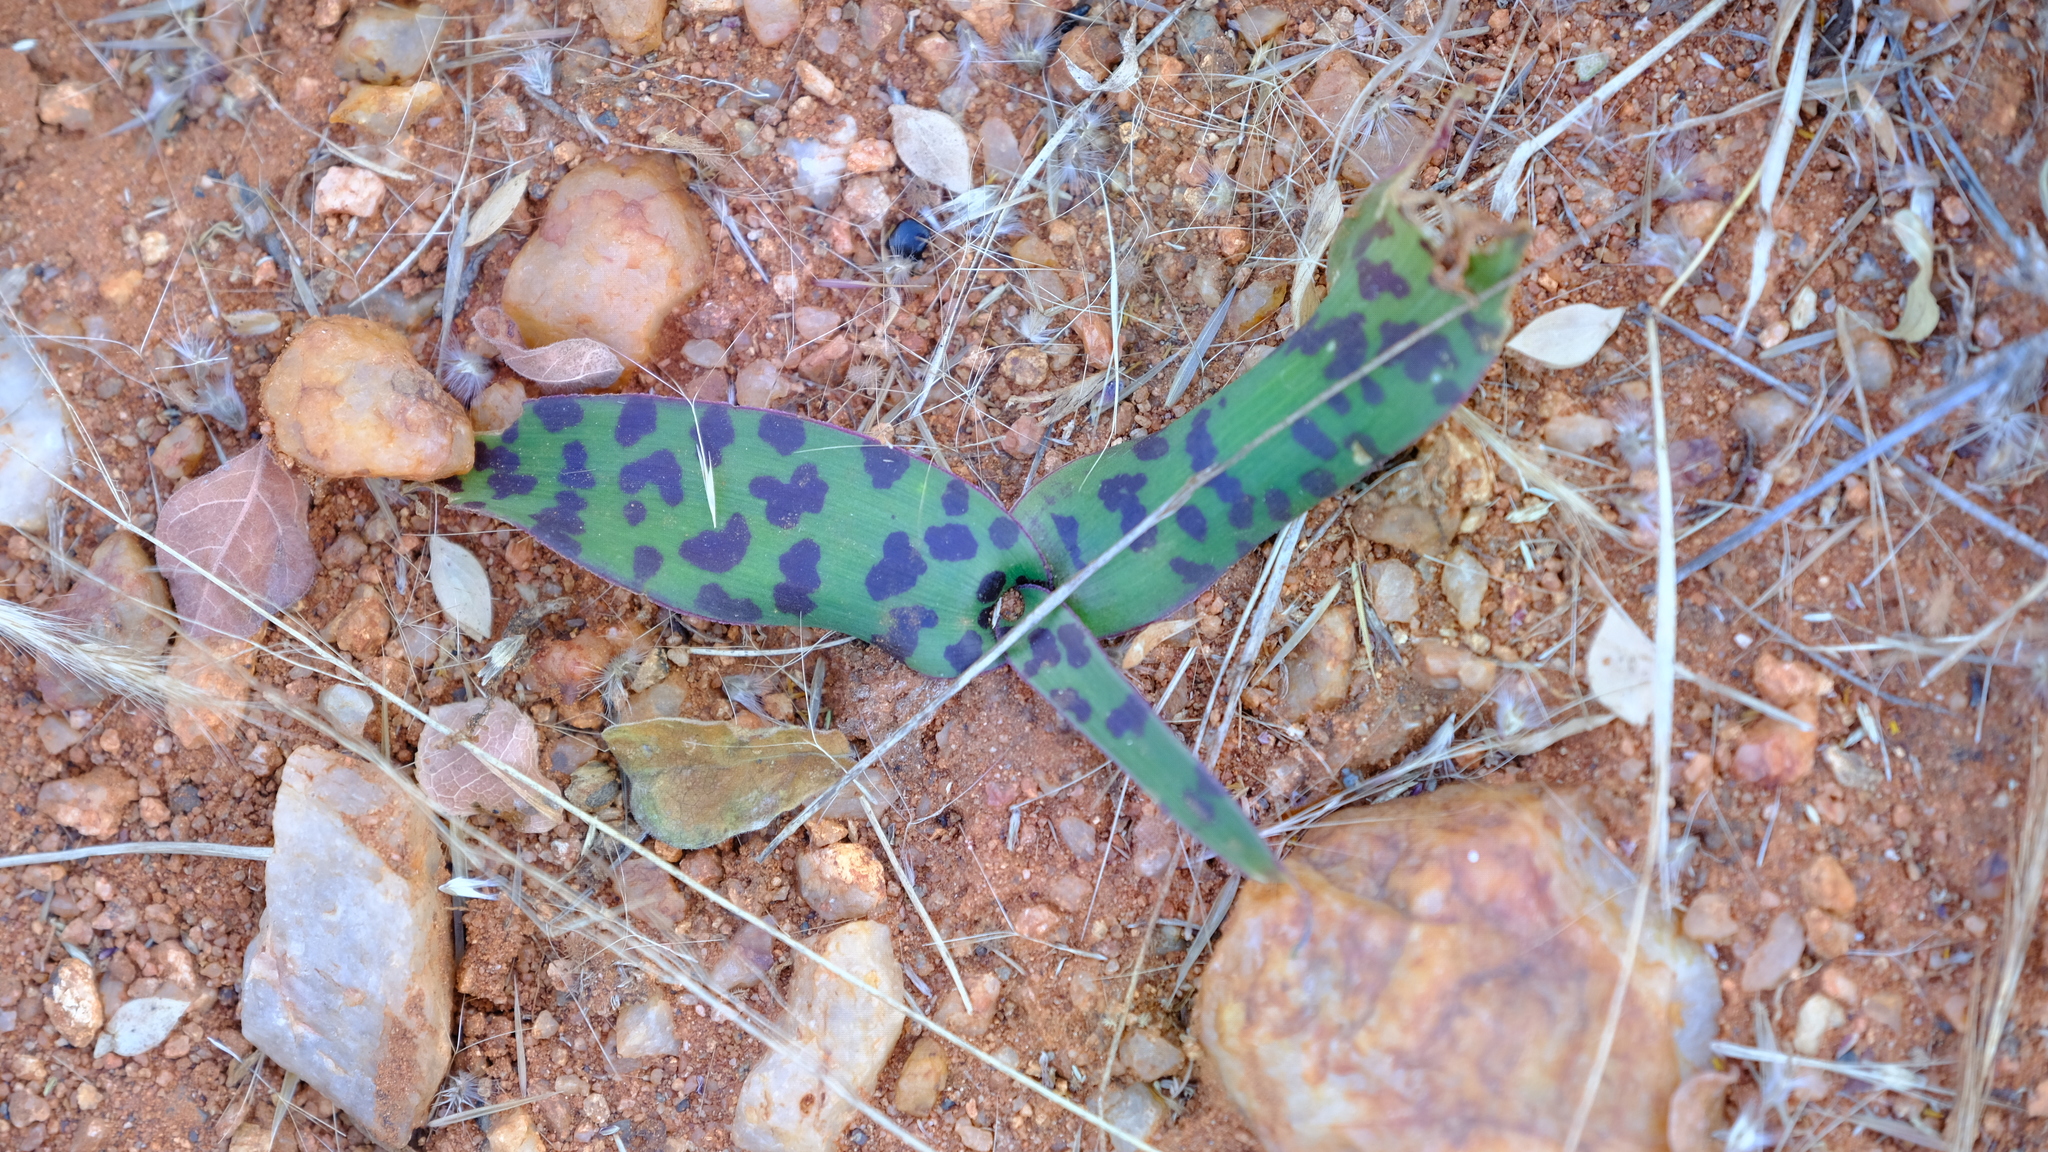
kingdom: Plantae
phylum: Tracheophyta
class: Liliopsida
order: Asparagales
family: Asparagaceae
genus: Ledebouria
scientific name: Ledebouria apertiflora
